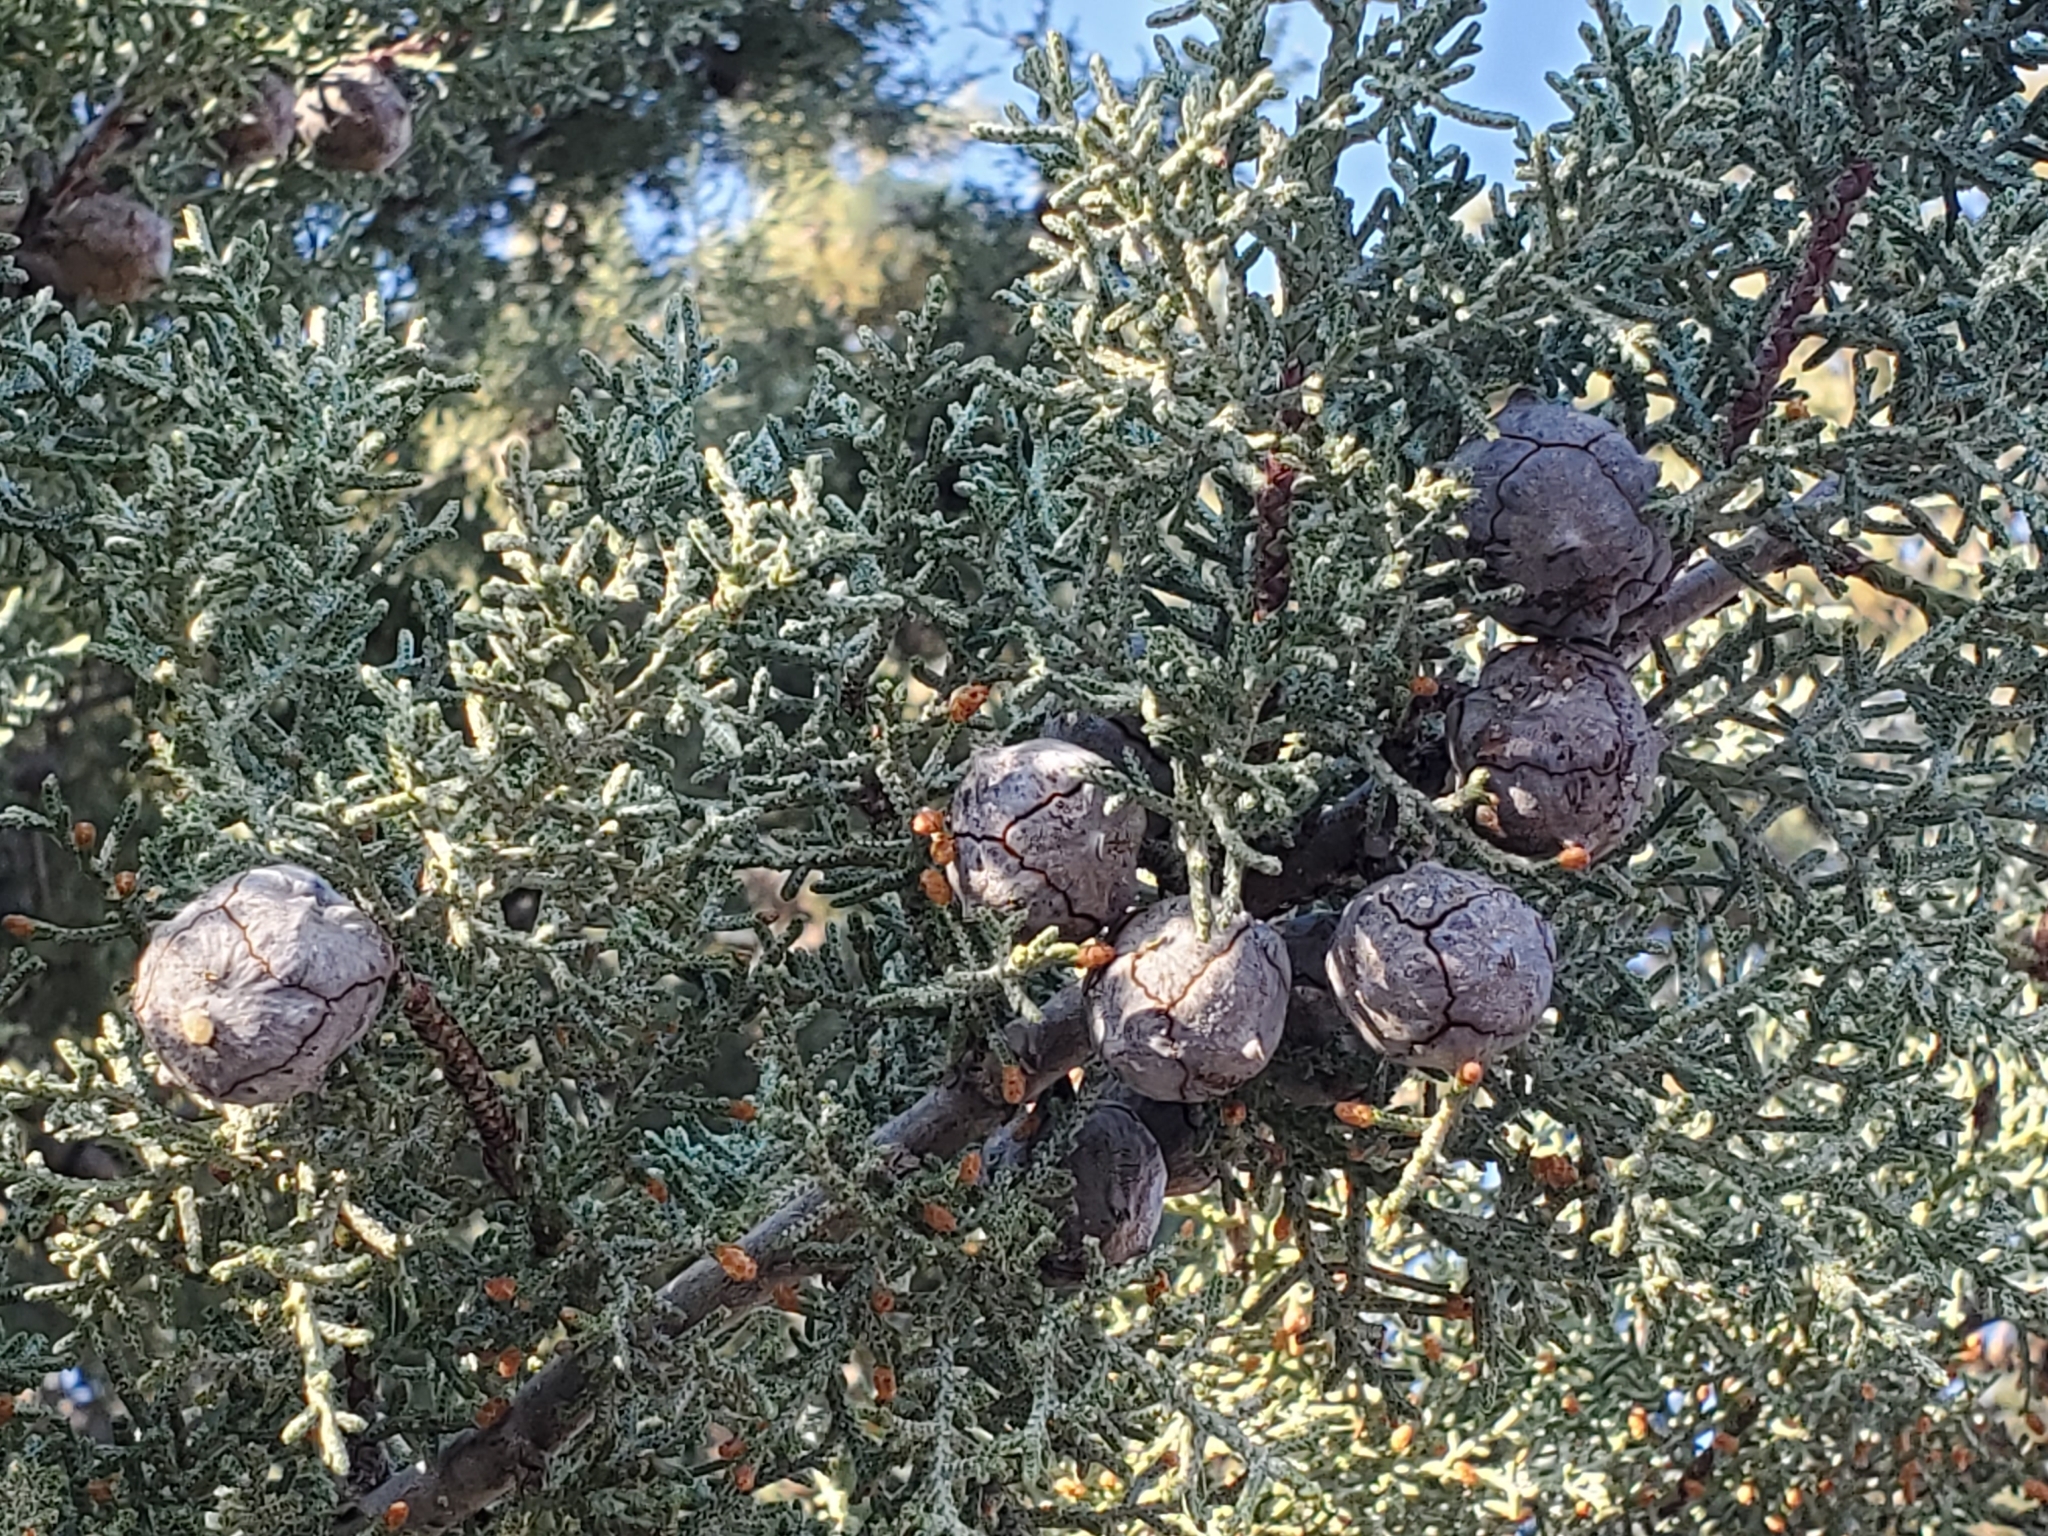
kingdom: Plantae
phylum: Tracheophyta
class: Pinopsida
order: Pinales
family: Cupressaceae
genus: Cupressus
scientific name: Cupressus arizonica
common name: Arizona cypress
